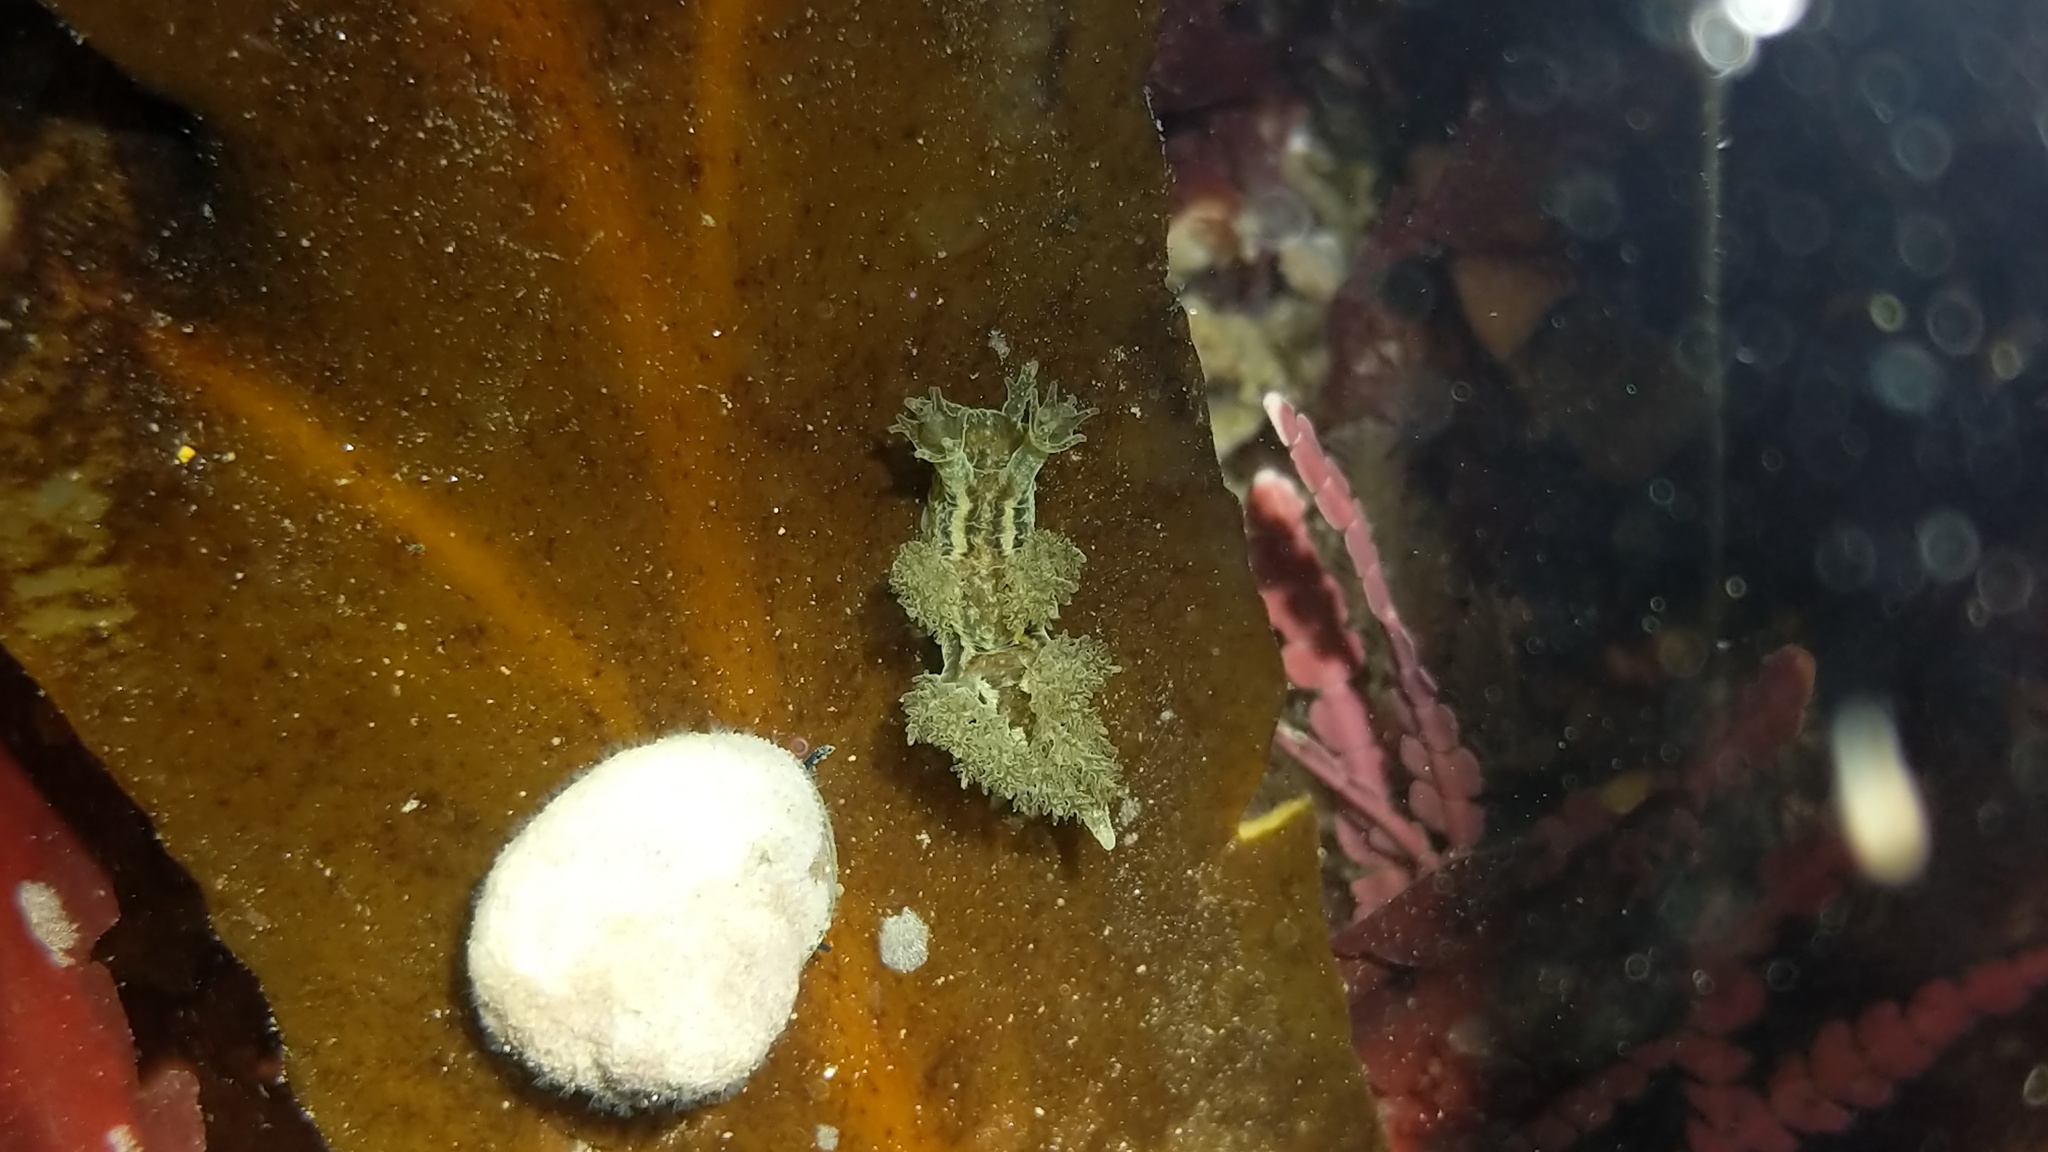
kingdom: Animalia
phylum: Mollusca
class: Gastropoda
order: Nudibranchia
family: Dendronotidae
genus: Dendronotus
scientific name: Dendronotus subramosus
